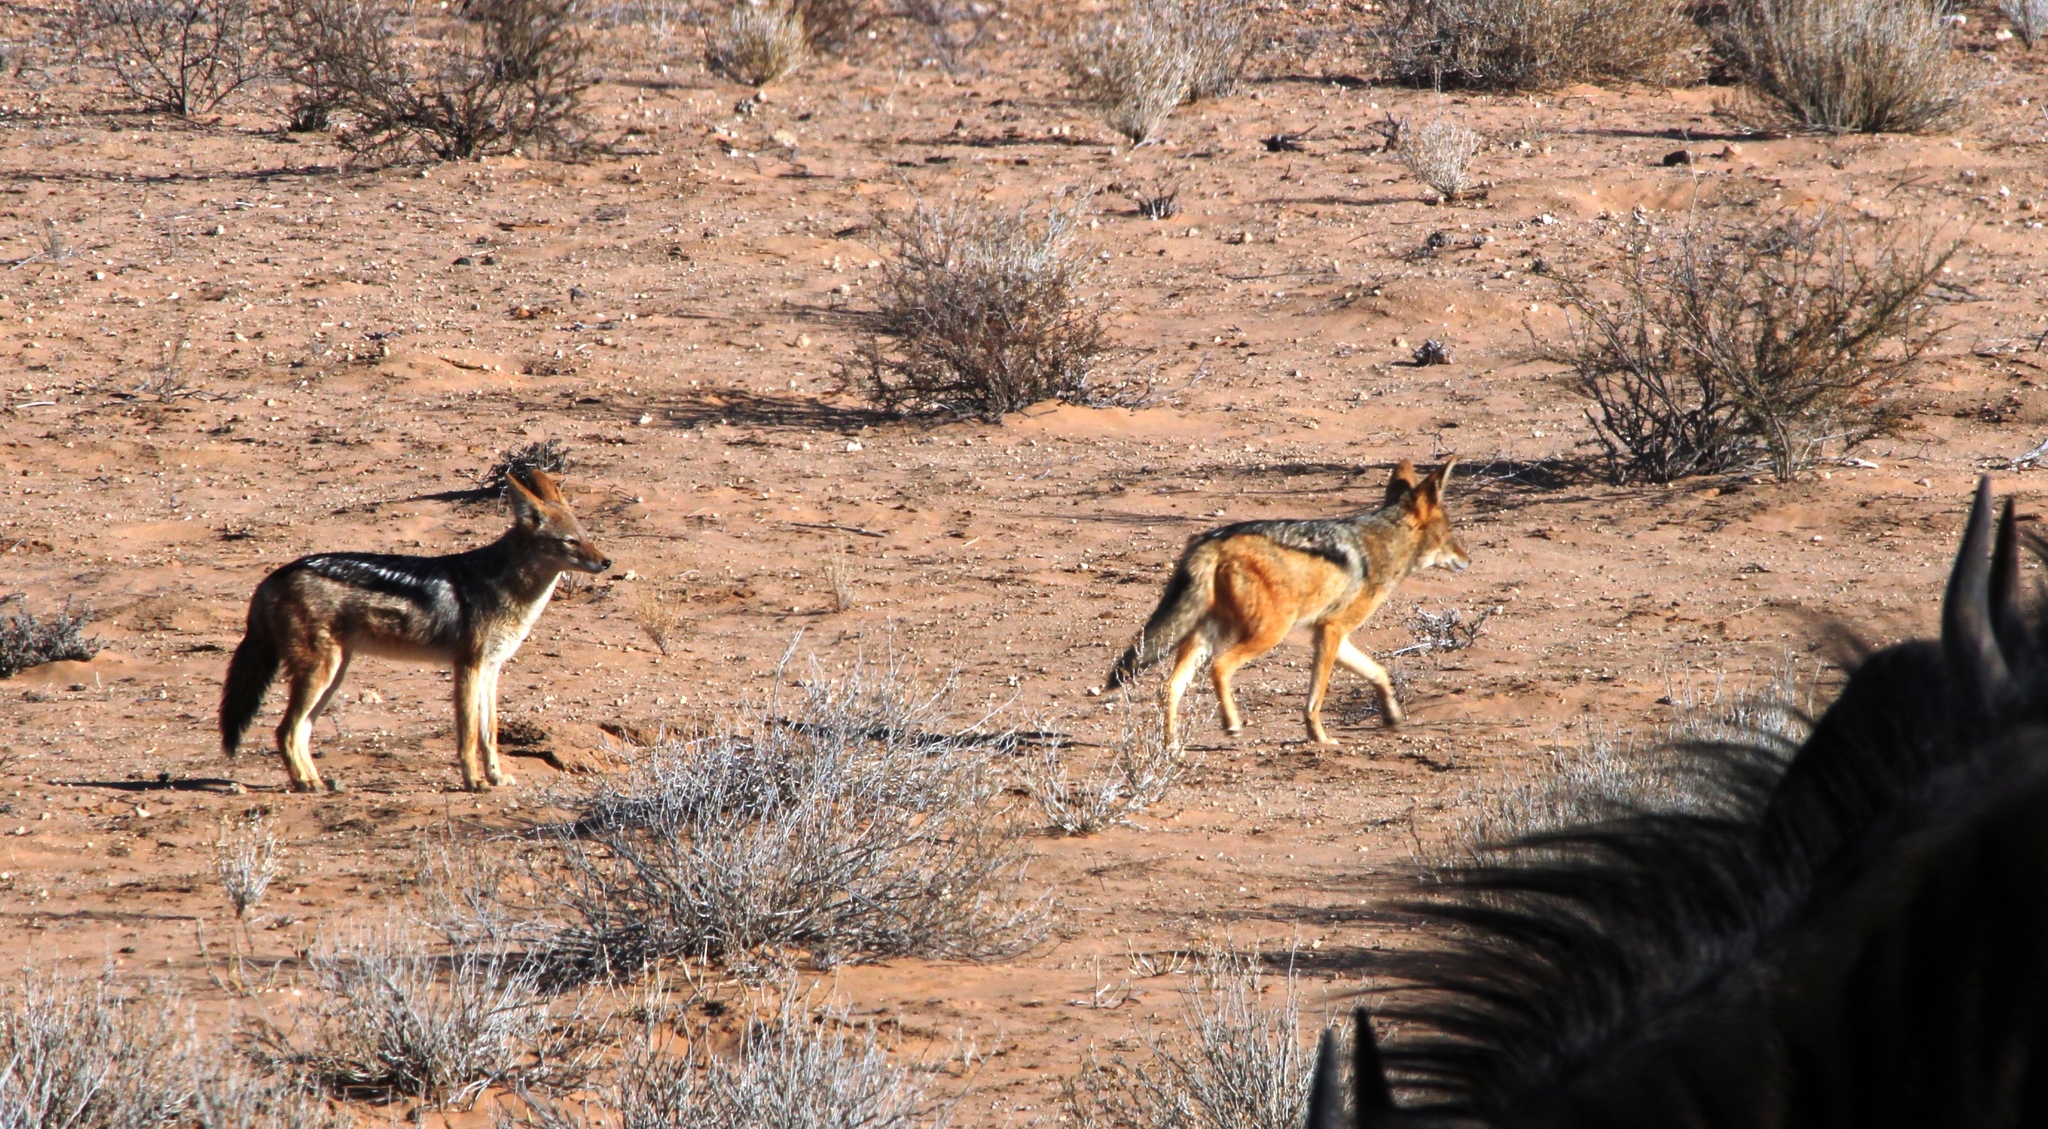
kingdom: Animalia
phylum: Chordata
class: Mammalia
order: Carnivora
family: Canidae
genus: Lupulella
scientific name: Lupulella
